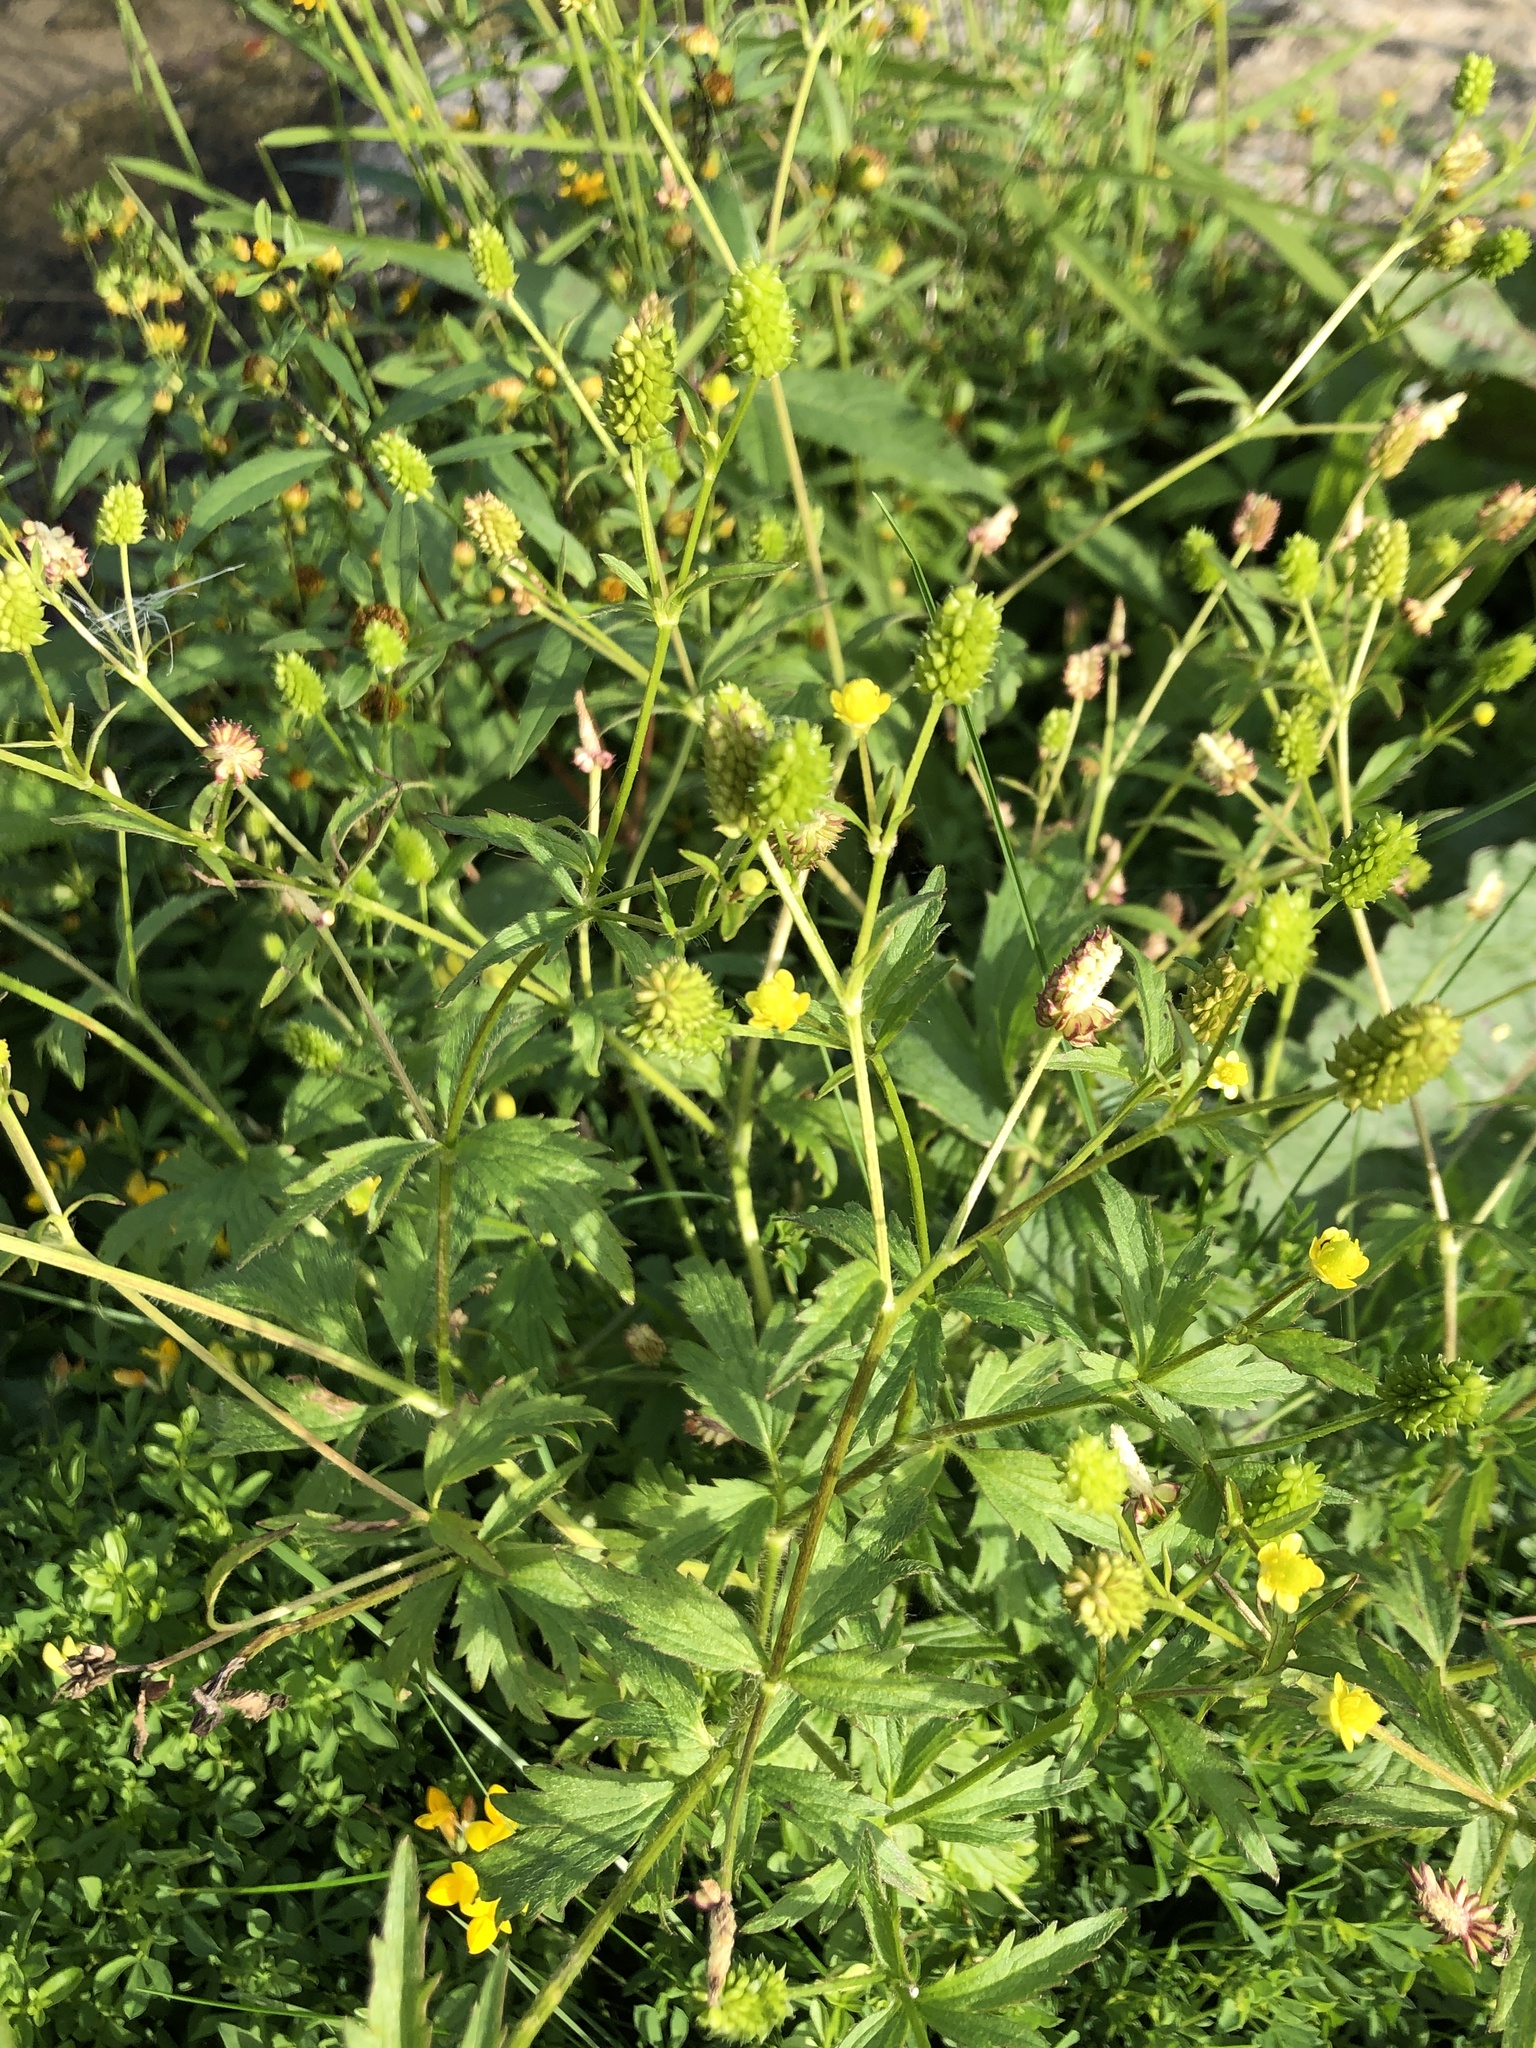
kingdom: Plantae
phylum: Tracheophyta
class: Magnoliopsida
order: Ranunculales
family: Ranunculaceae
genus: Ranunculus
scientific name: Ranunculus pensylvanicus
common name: Bristly buttercup
